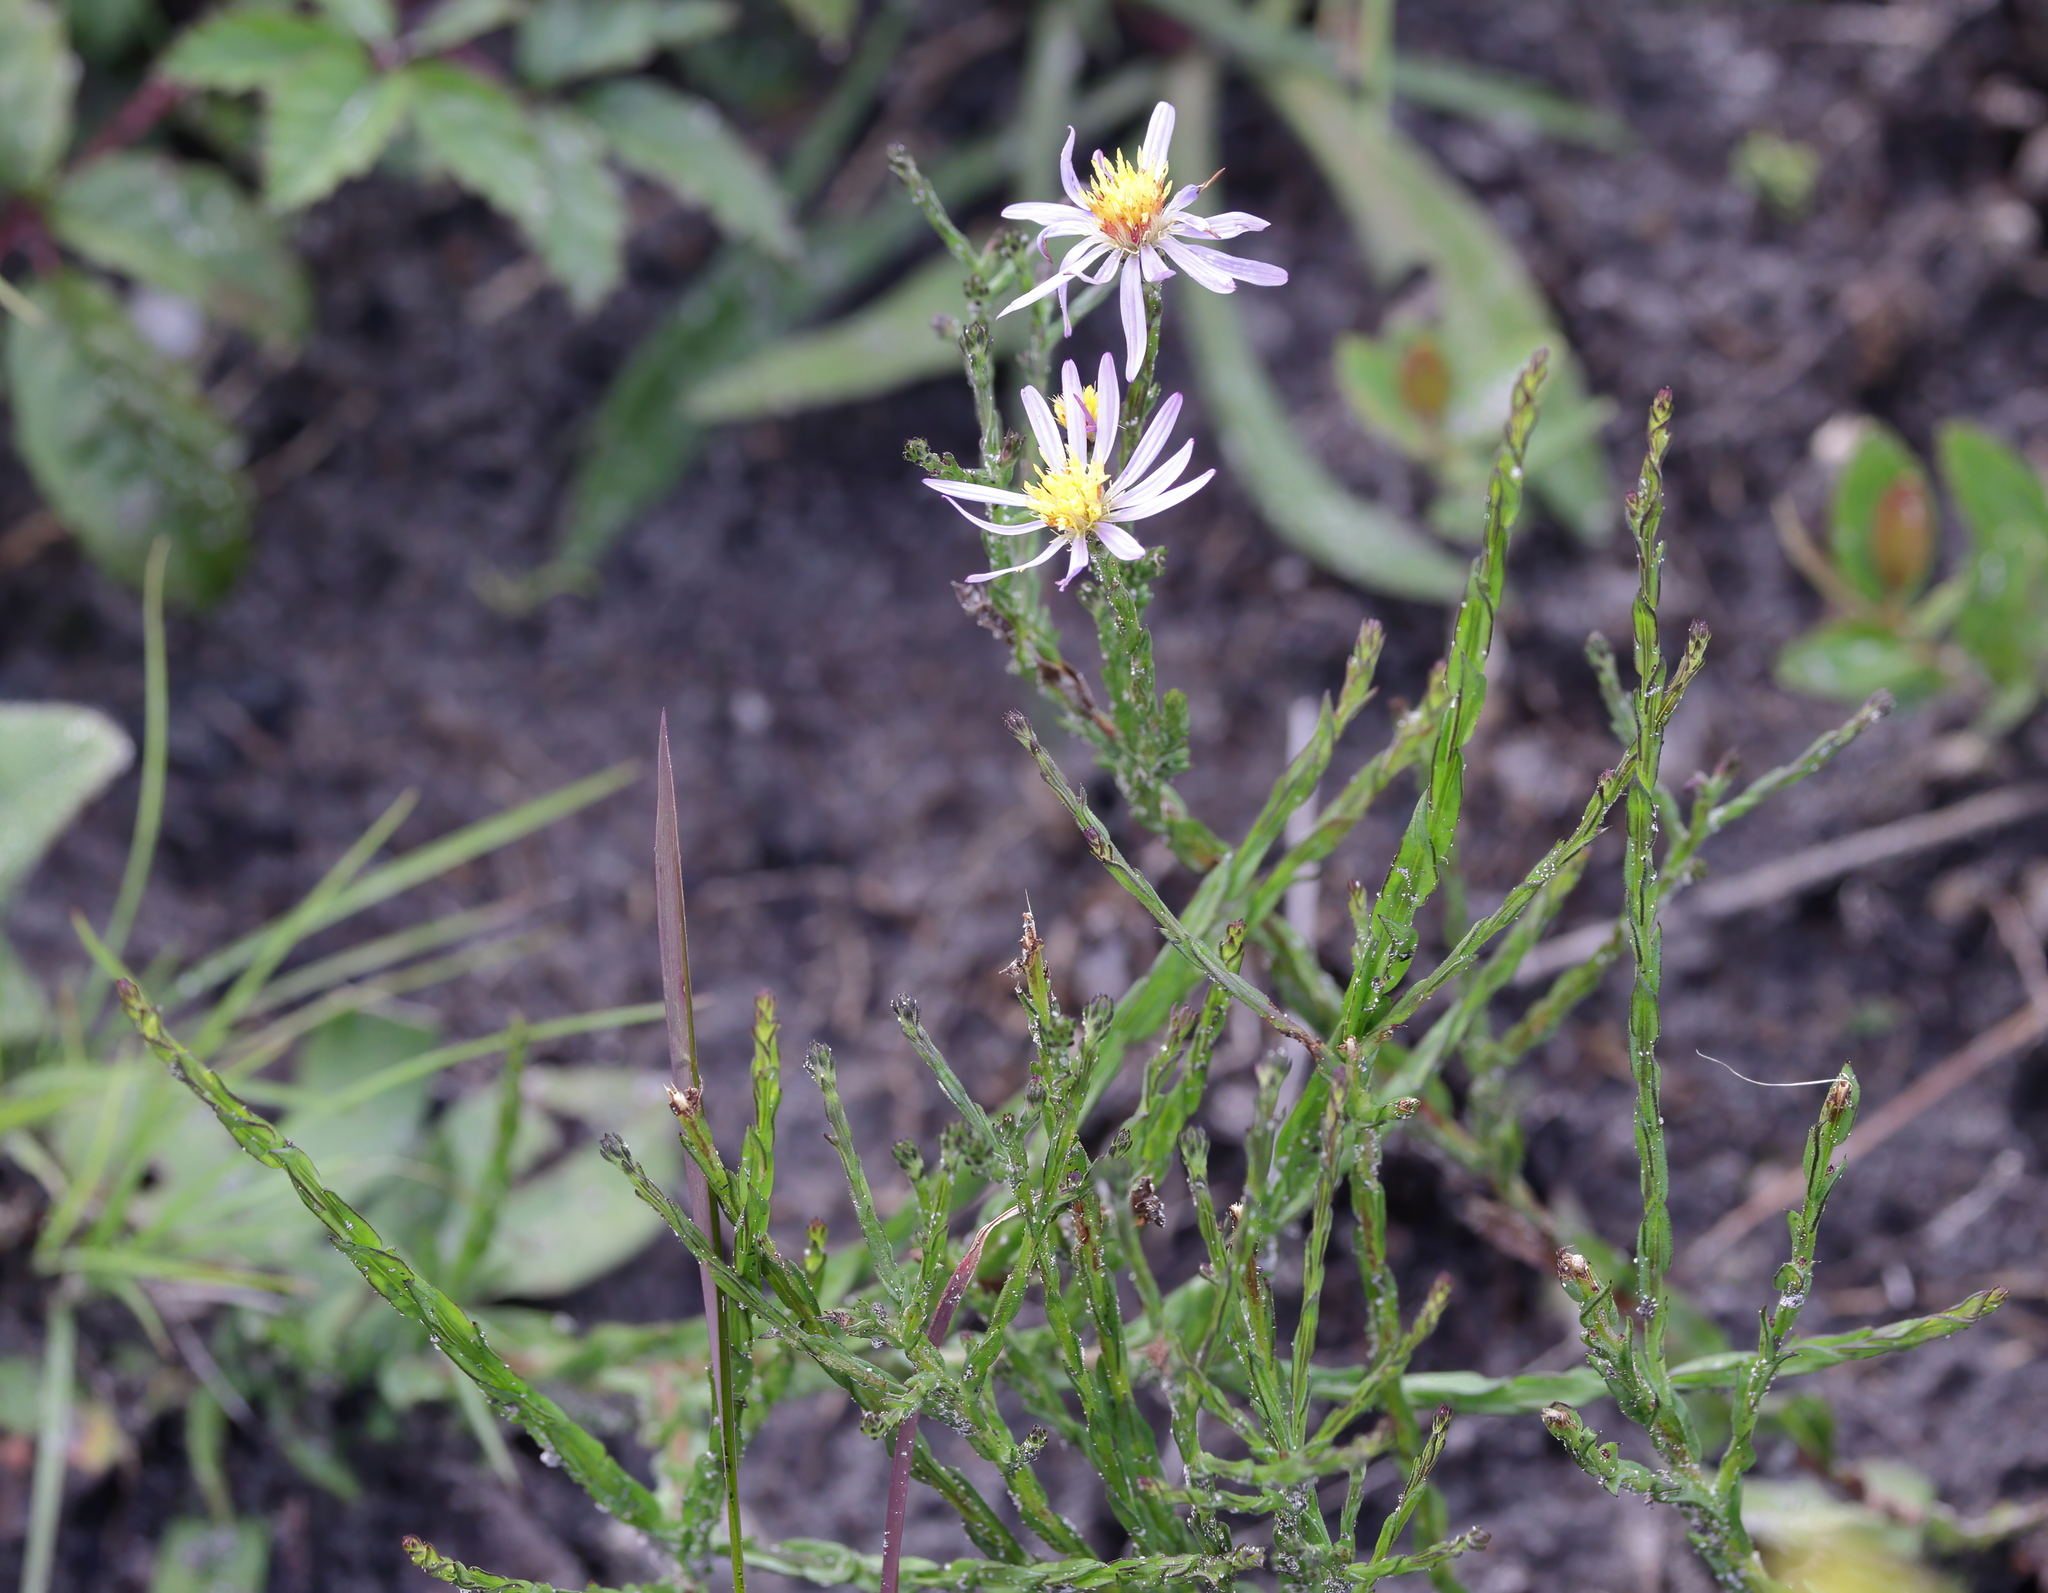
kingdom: Plantae
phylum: Tracheophyta
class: Magnoliopsida
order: Asterales
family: Asteraceae
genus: Symphyotrichum
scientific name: Symphyotrichum adnatum
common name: Scale-leaf aster
